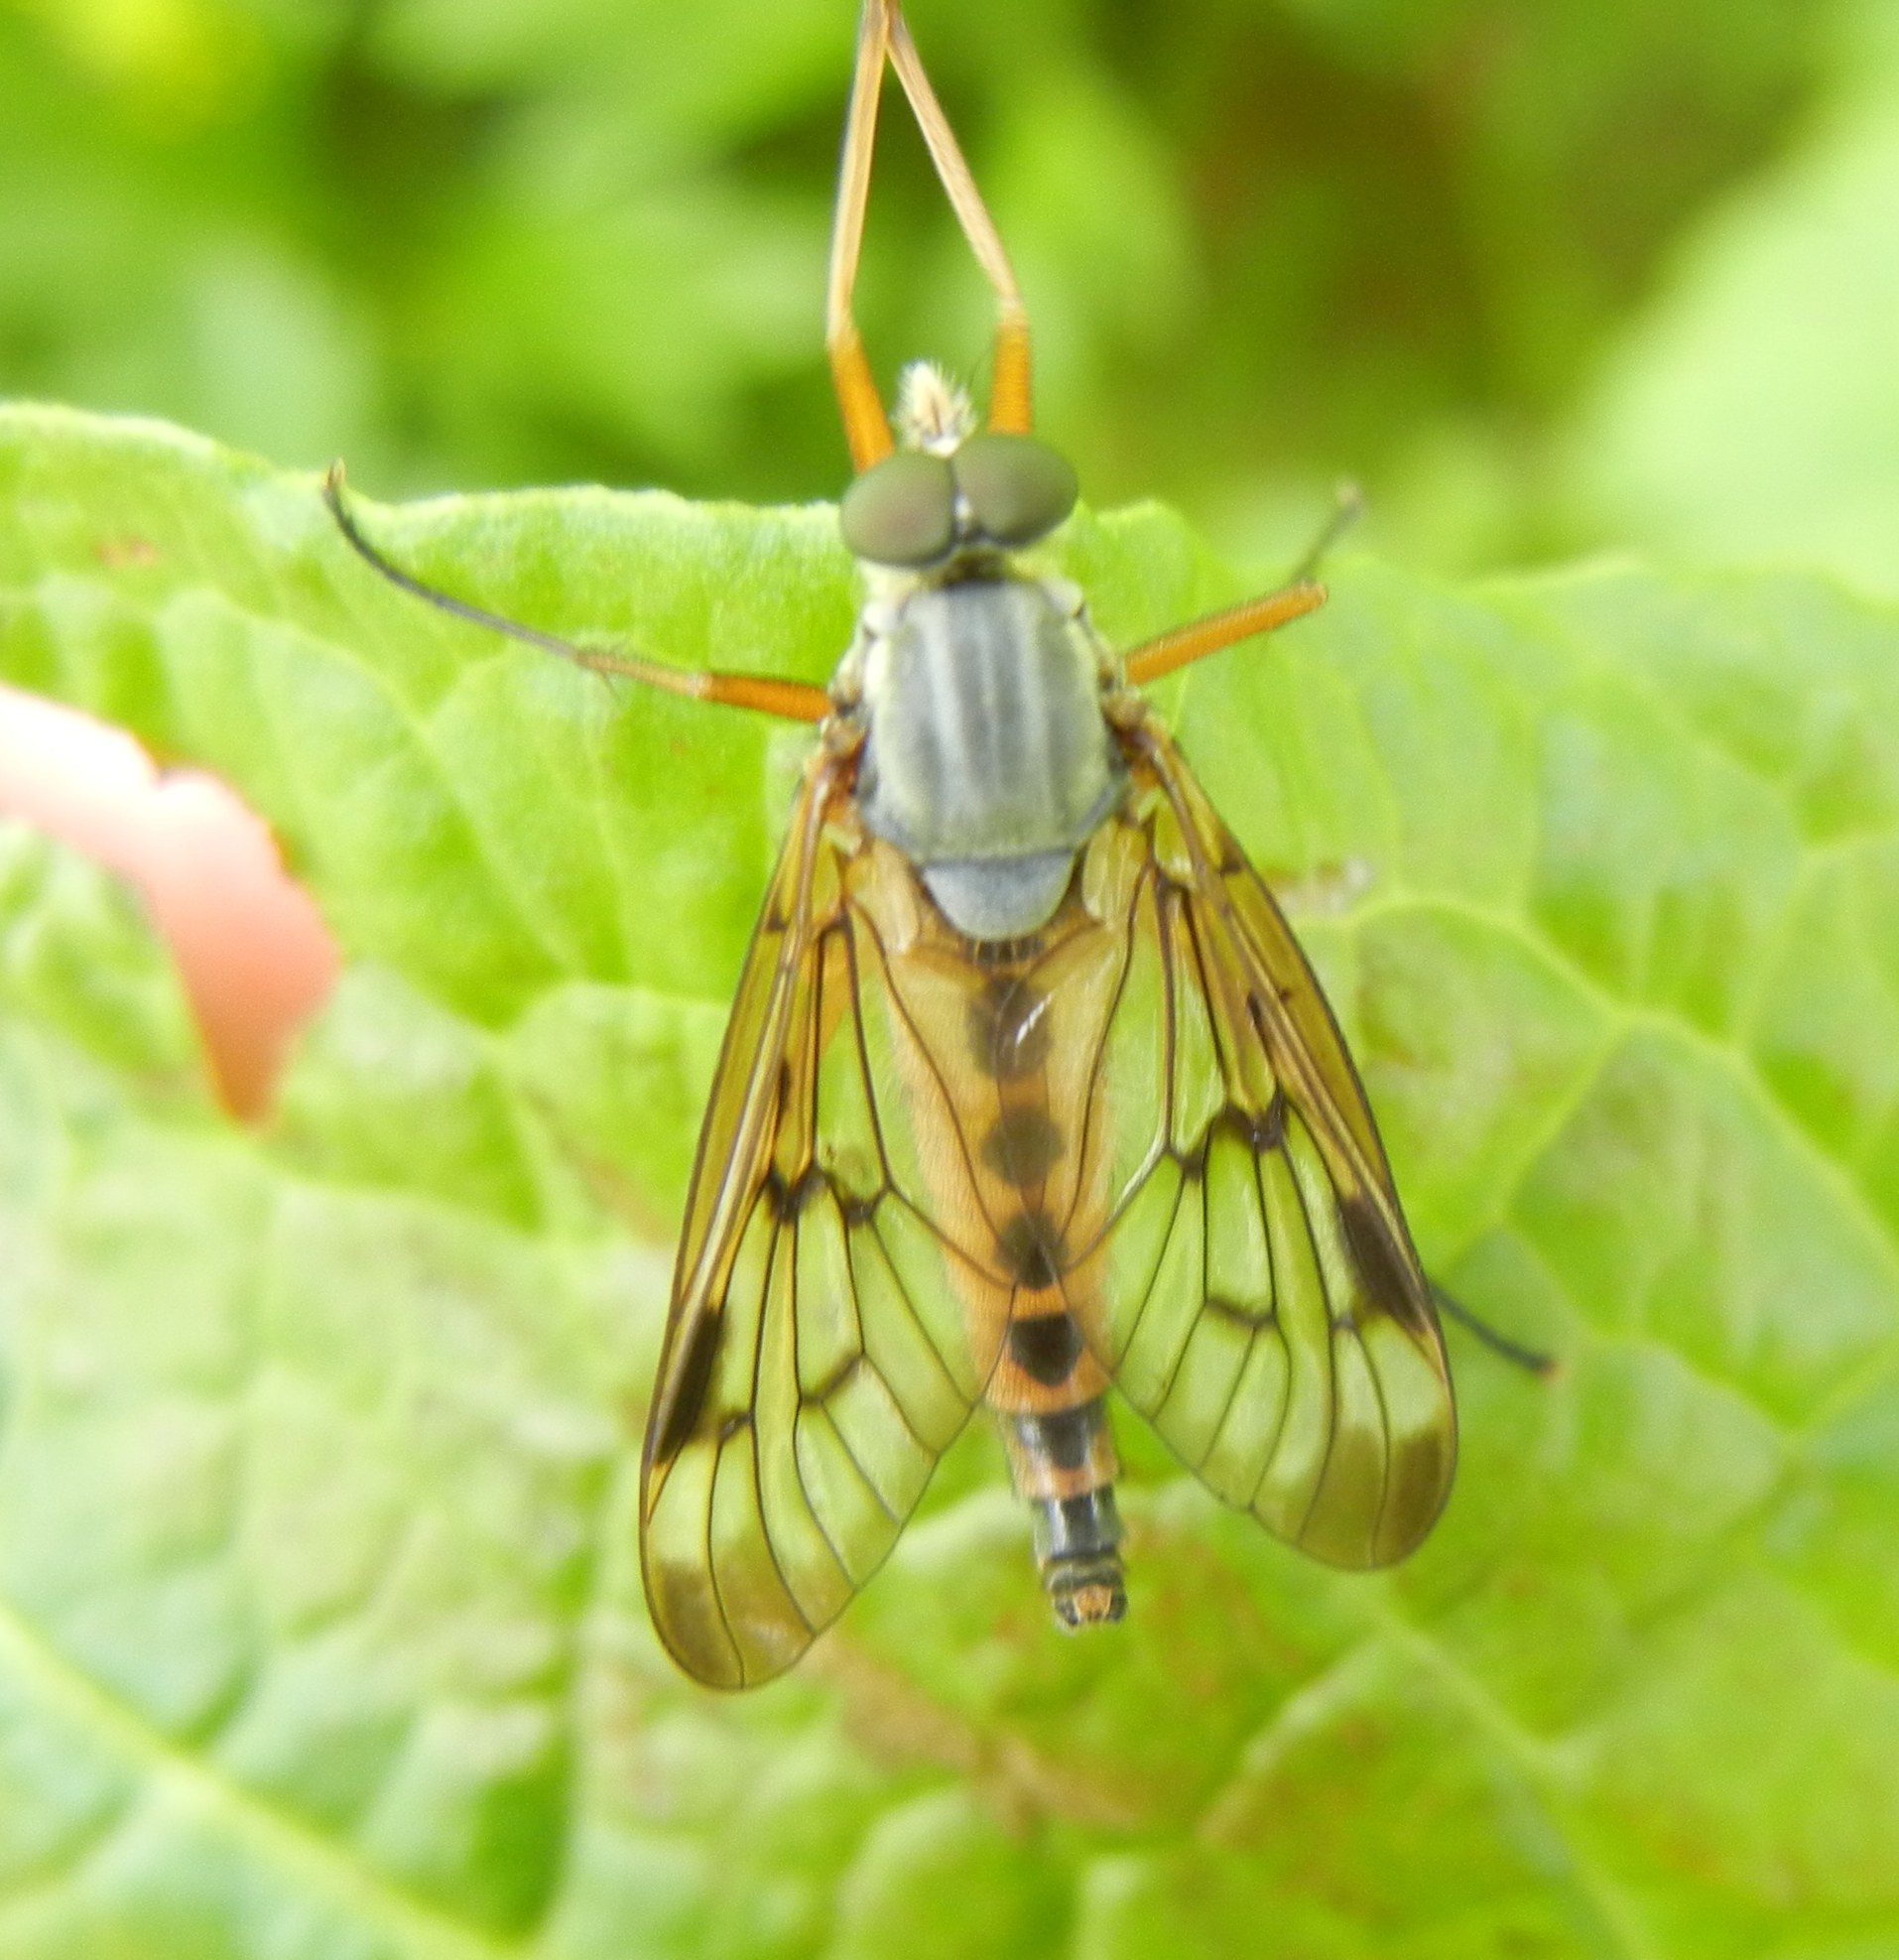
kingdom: Animalia
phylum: Arthropoda
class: Insecta
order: Diptera
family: Rhagionidae
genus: Rhagio
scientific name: Rhagio scolopacea
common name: Downlooker snipefly
